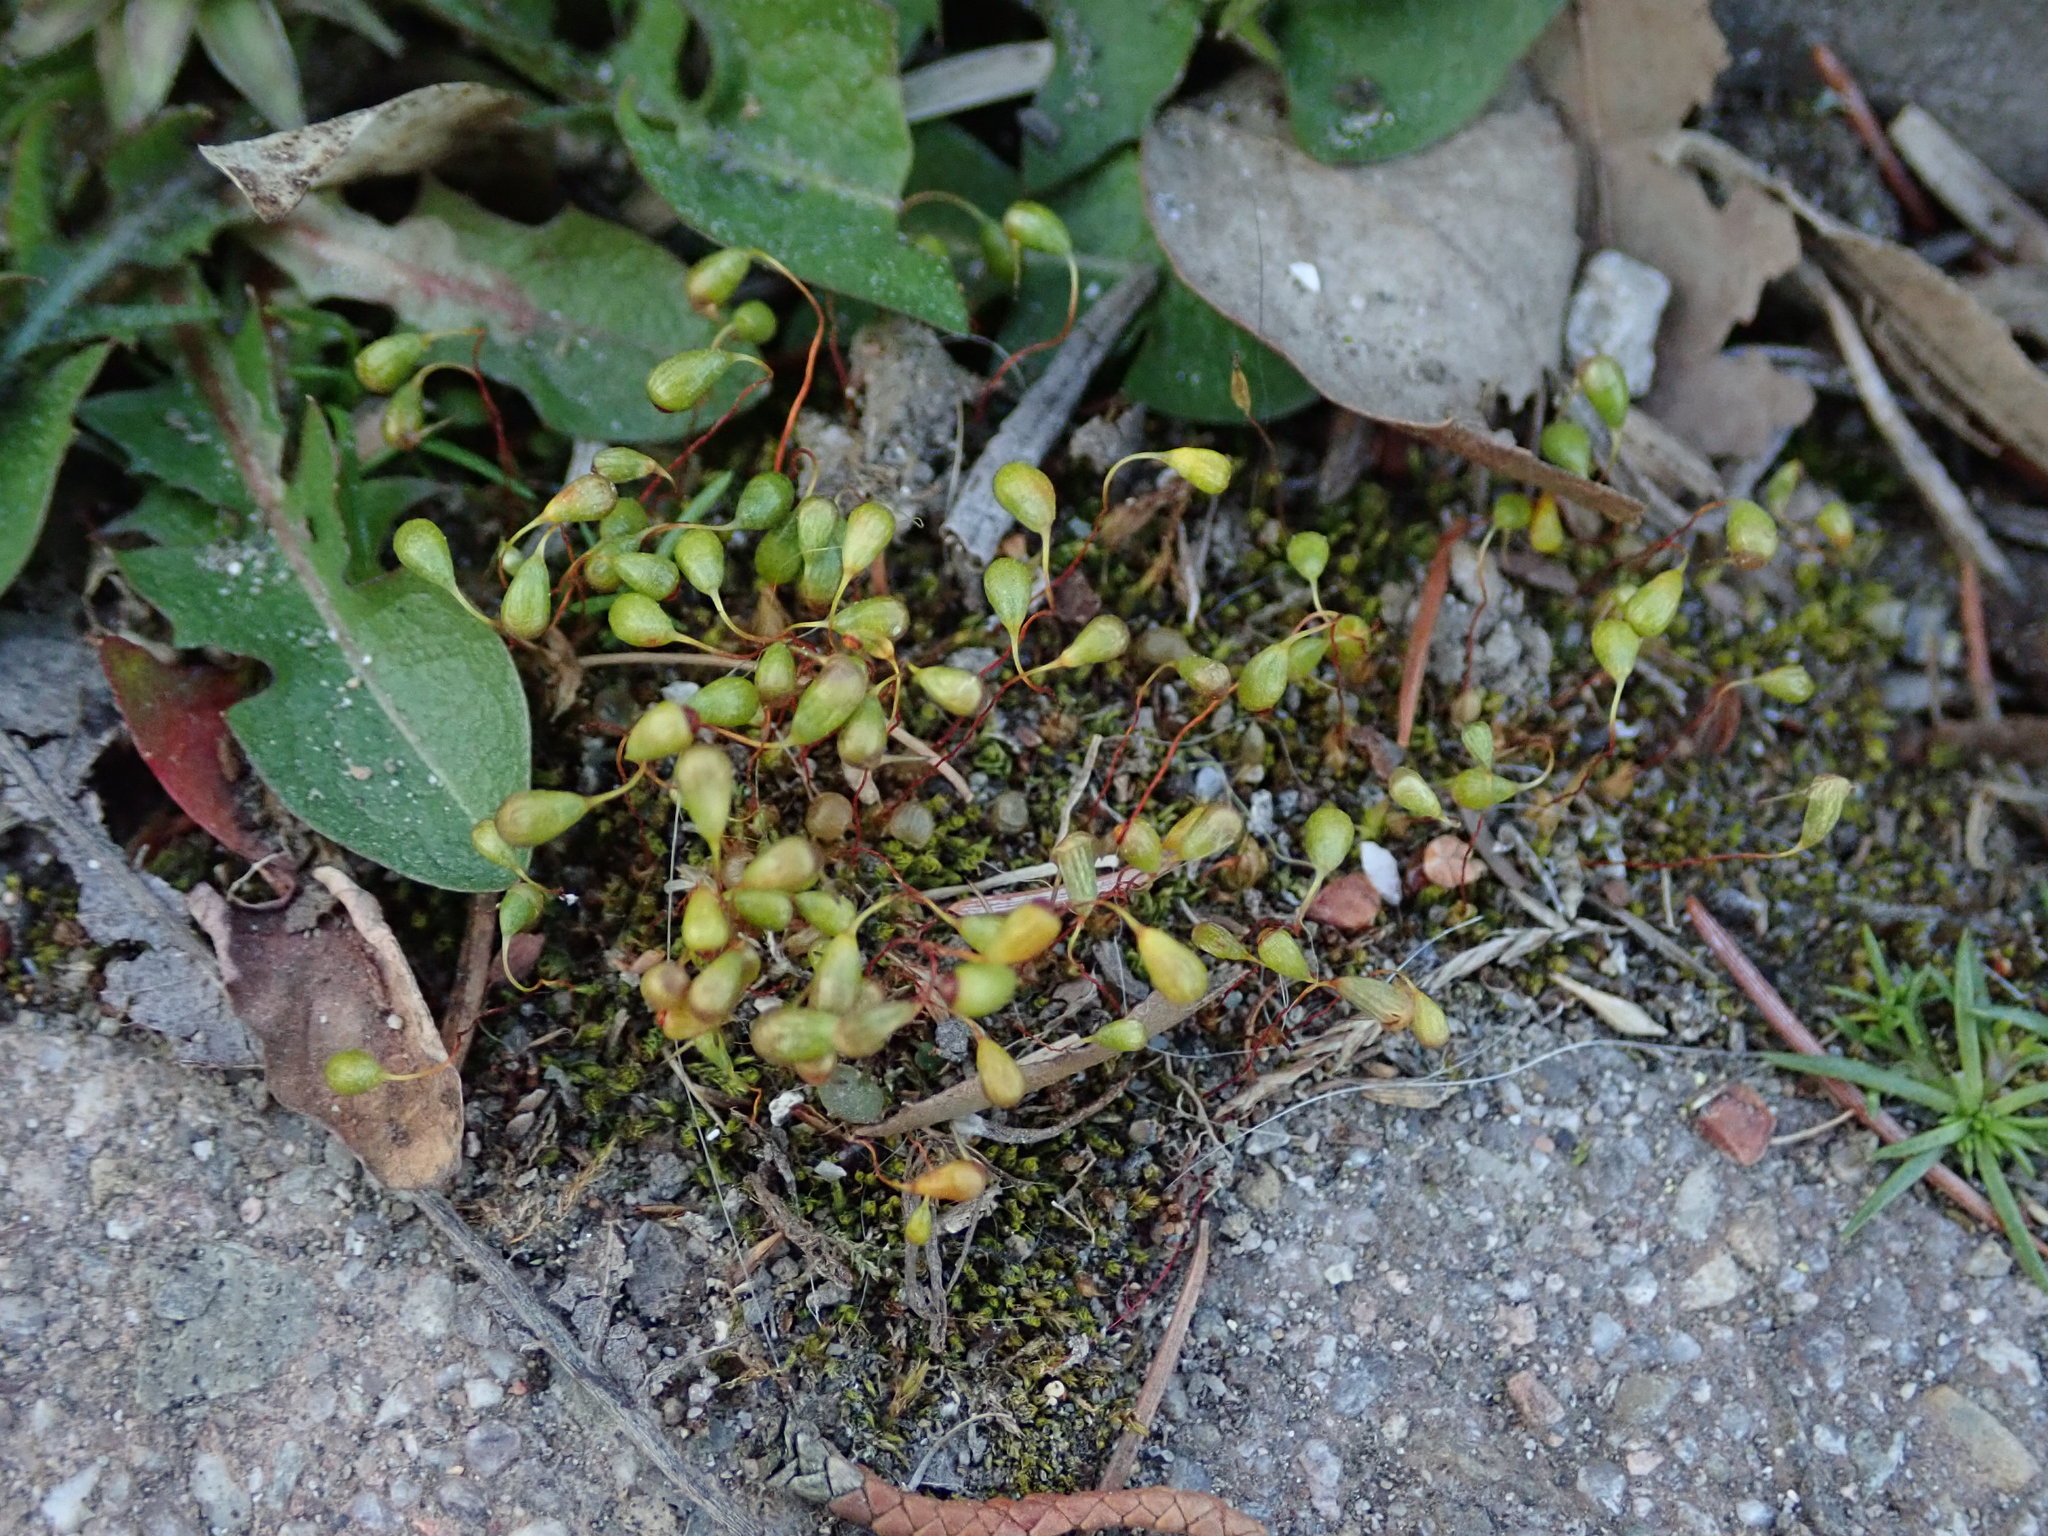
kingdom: Plantae
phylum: Bryophyta
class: Bryopsida
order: Funariales
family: Funariaceae
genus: Funaria
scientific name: Funaria hygrometrica
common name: Common cord moss
